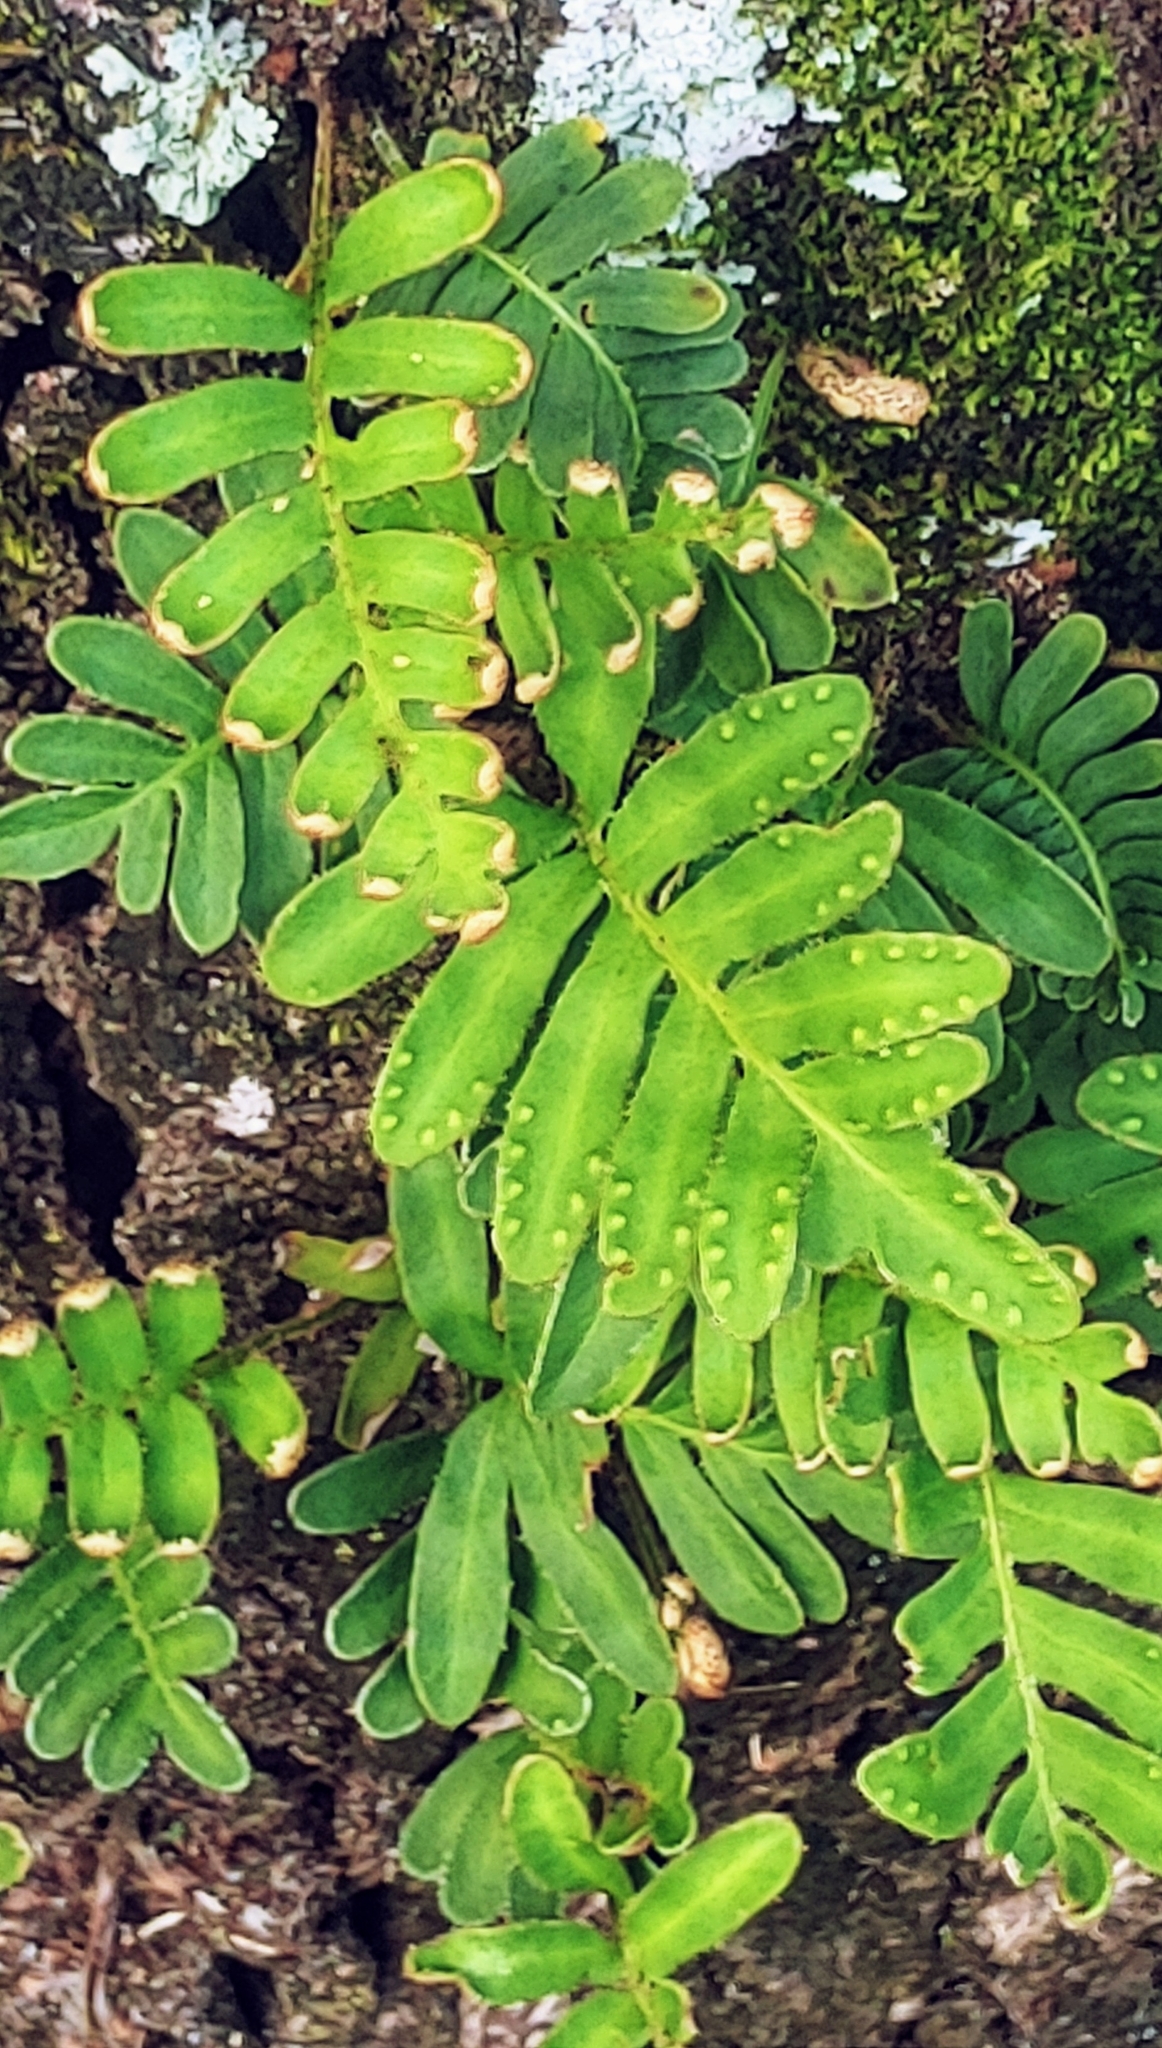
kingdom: Plantae
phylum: Tracheophyta
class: Polypodiopsida
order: Polypodiales
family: Polypodiaceae
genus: Pleopeltis
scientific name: Pleopeltis michauxiana
